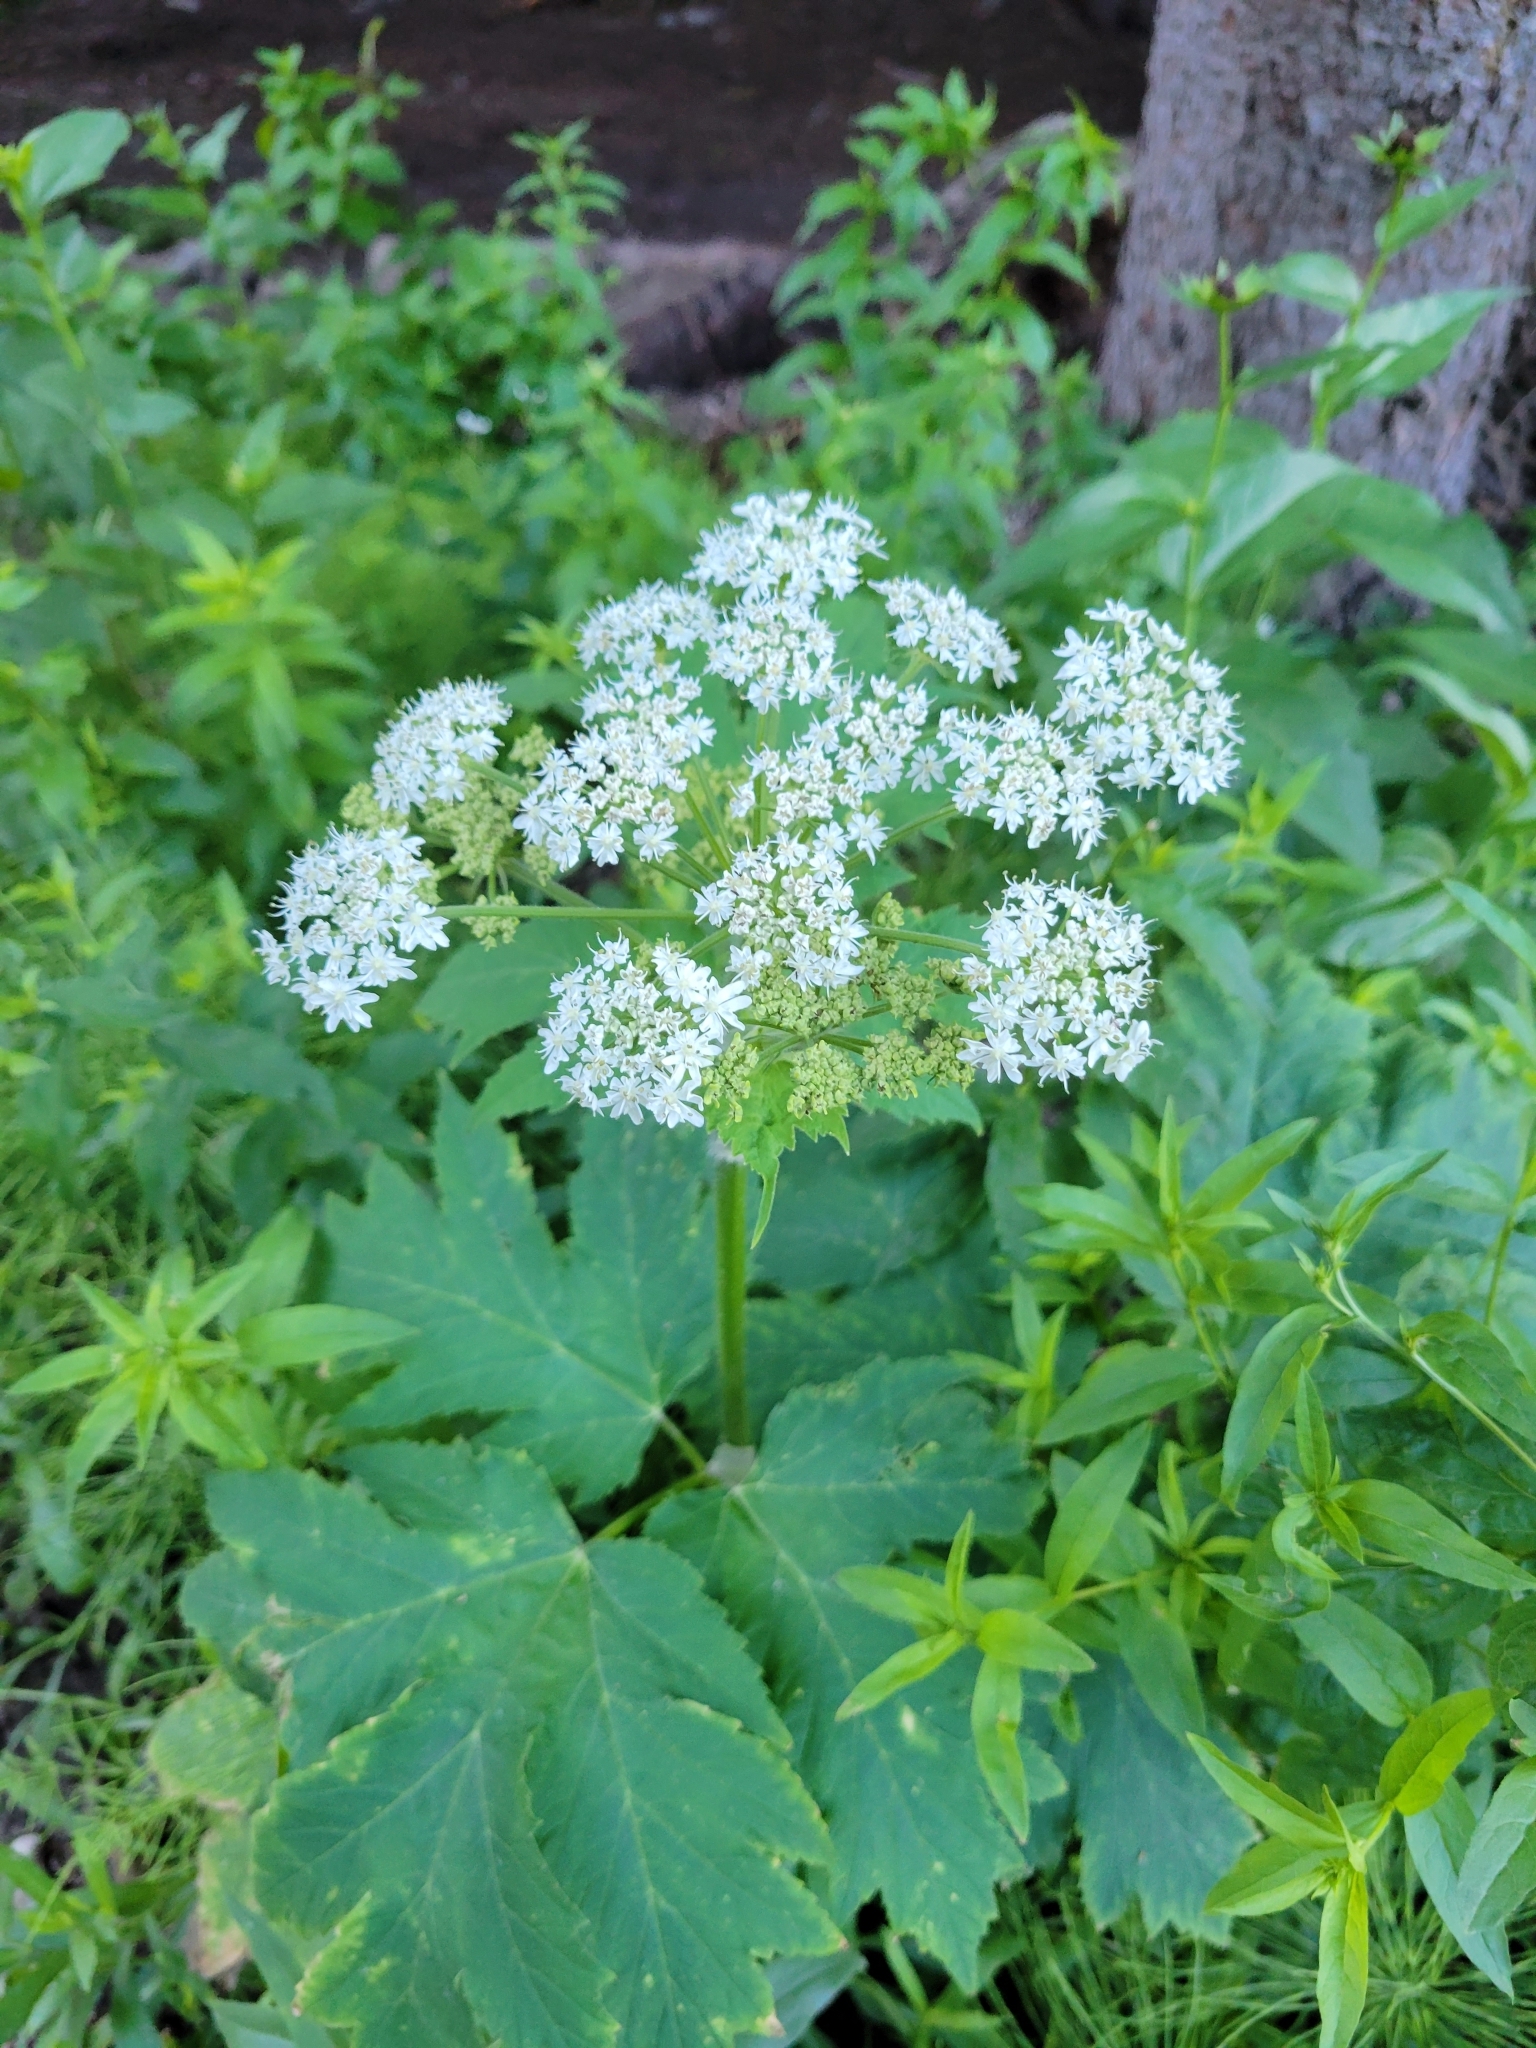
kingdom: Plantae
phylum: Tracheophyta
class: Magnoliopsida
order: Apiales
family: Apiaceae
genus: Heracleum
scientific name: Heracleum maximum
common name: American cow parsnip
